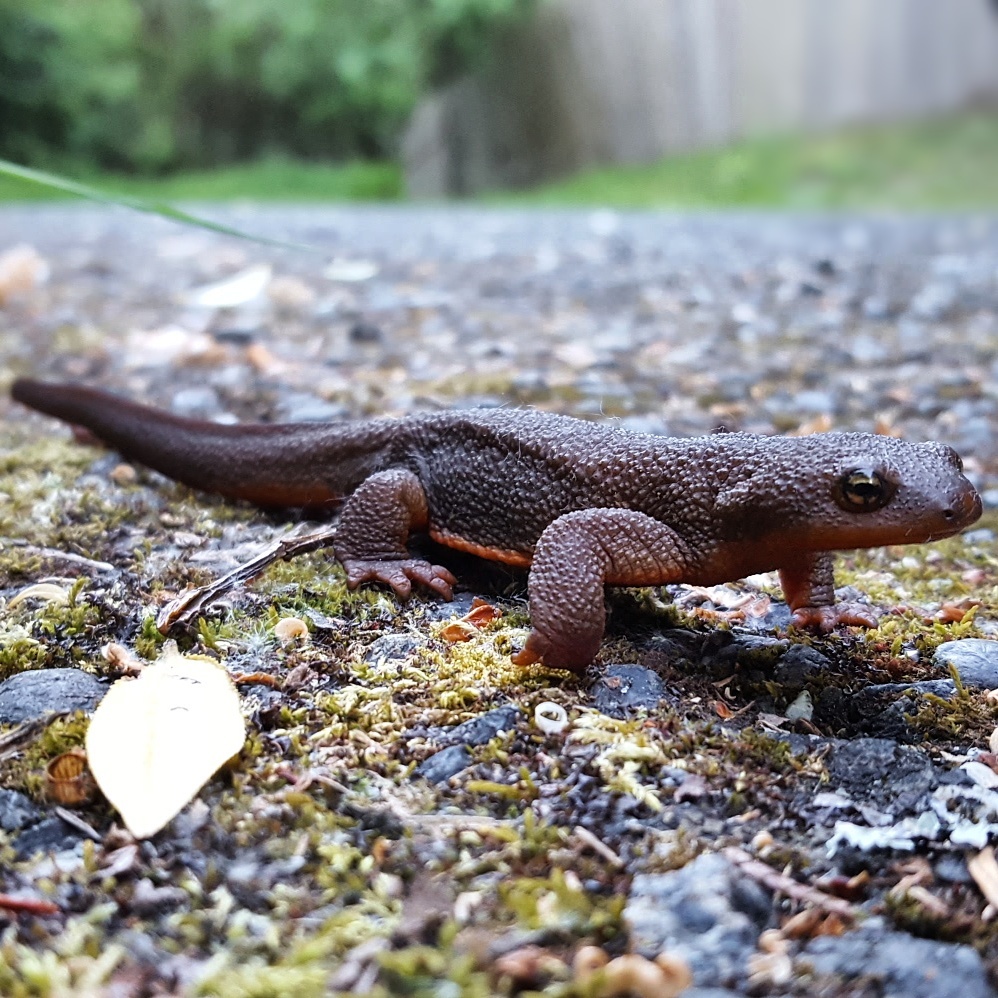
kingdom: Animalia
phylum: Chordata
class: Amphibia
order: Caudata
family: Salamandridae
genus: Taricha
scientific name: Taricha granulosa
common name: Roughskin newt
